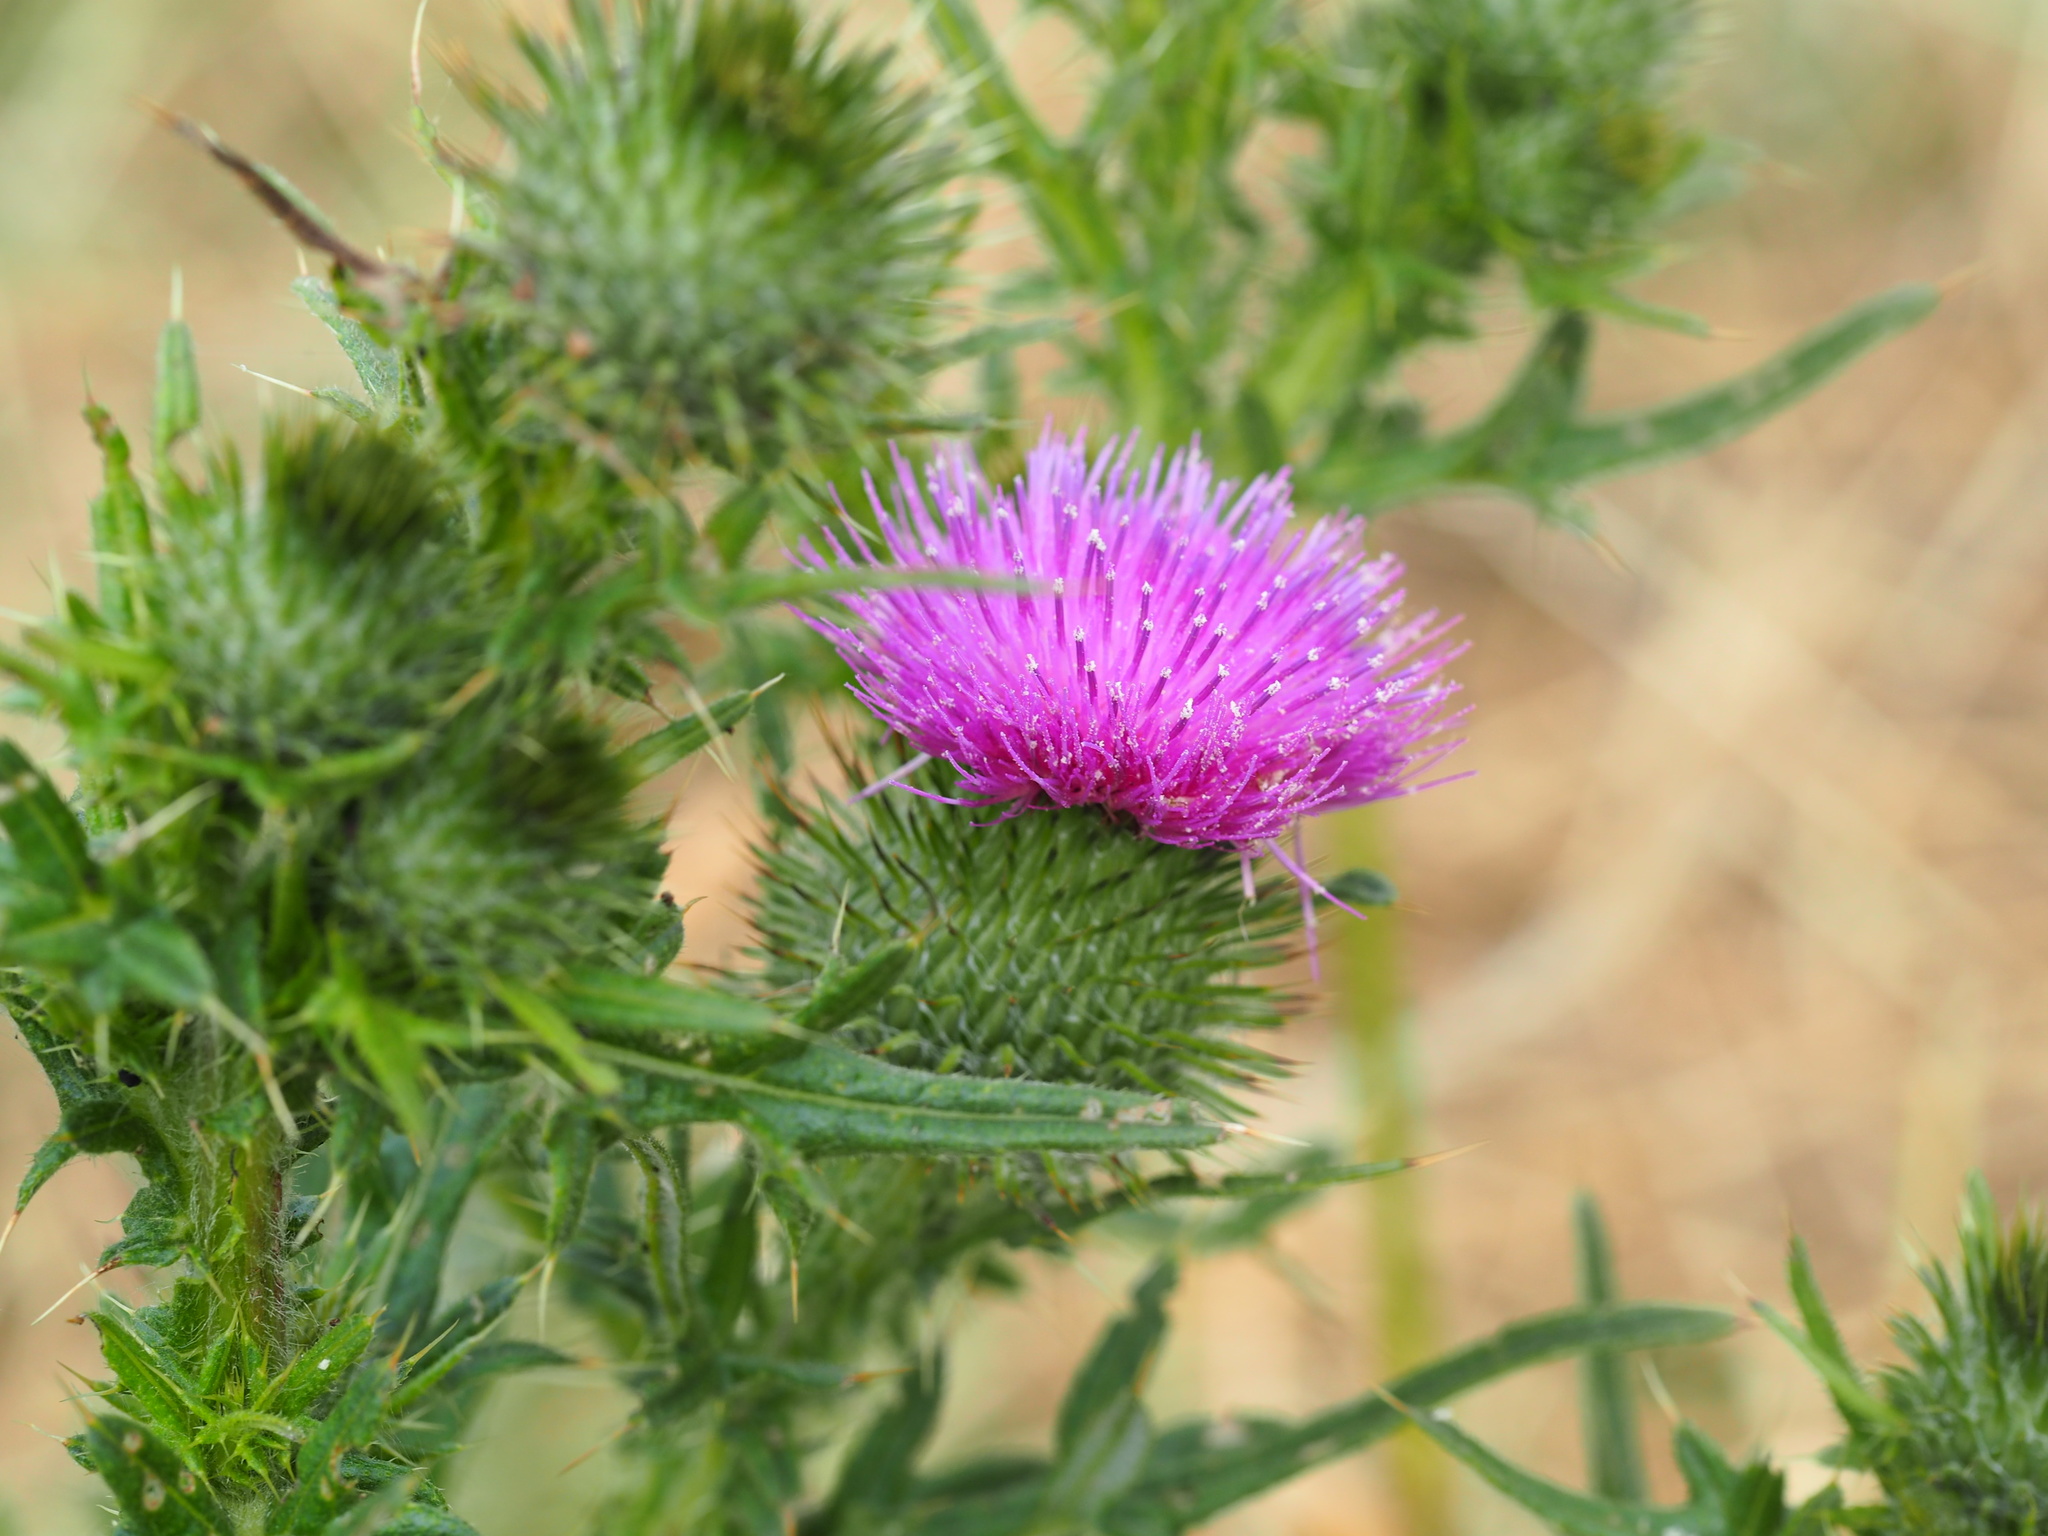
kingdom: Plantae
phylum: Tracheophyta
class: Magnoliopsida
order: Asterales
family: Asteraceae
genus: Cirsium
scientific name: Cirsium vulgare
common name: Bull thistle
